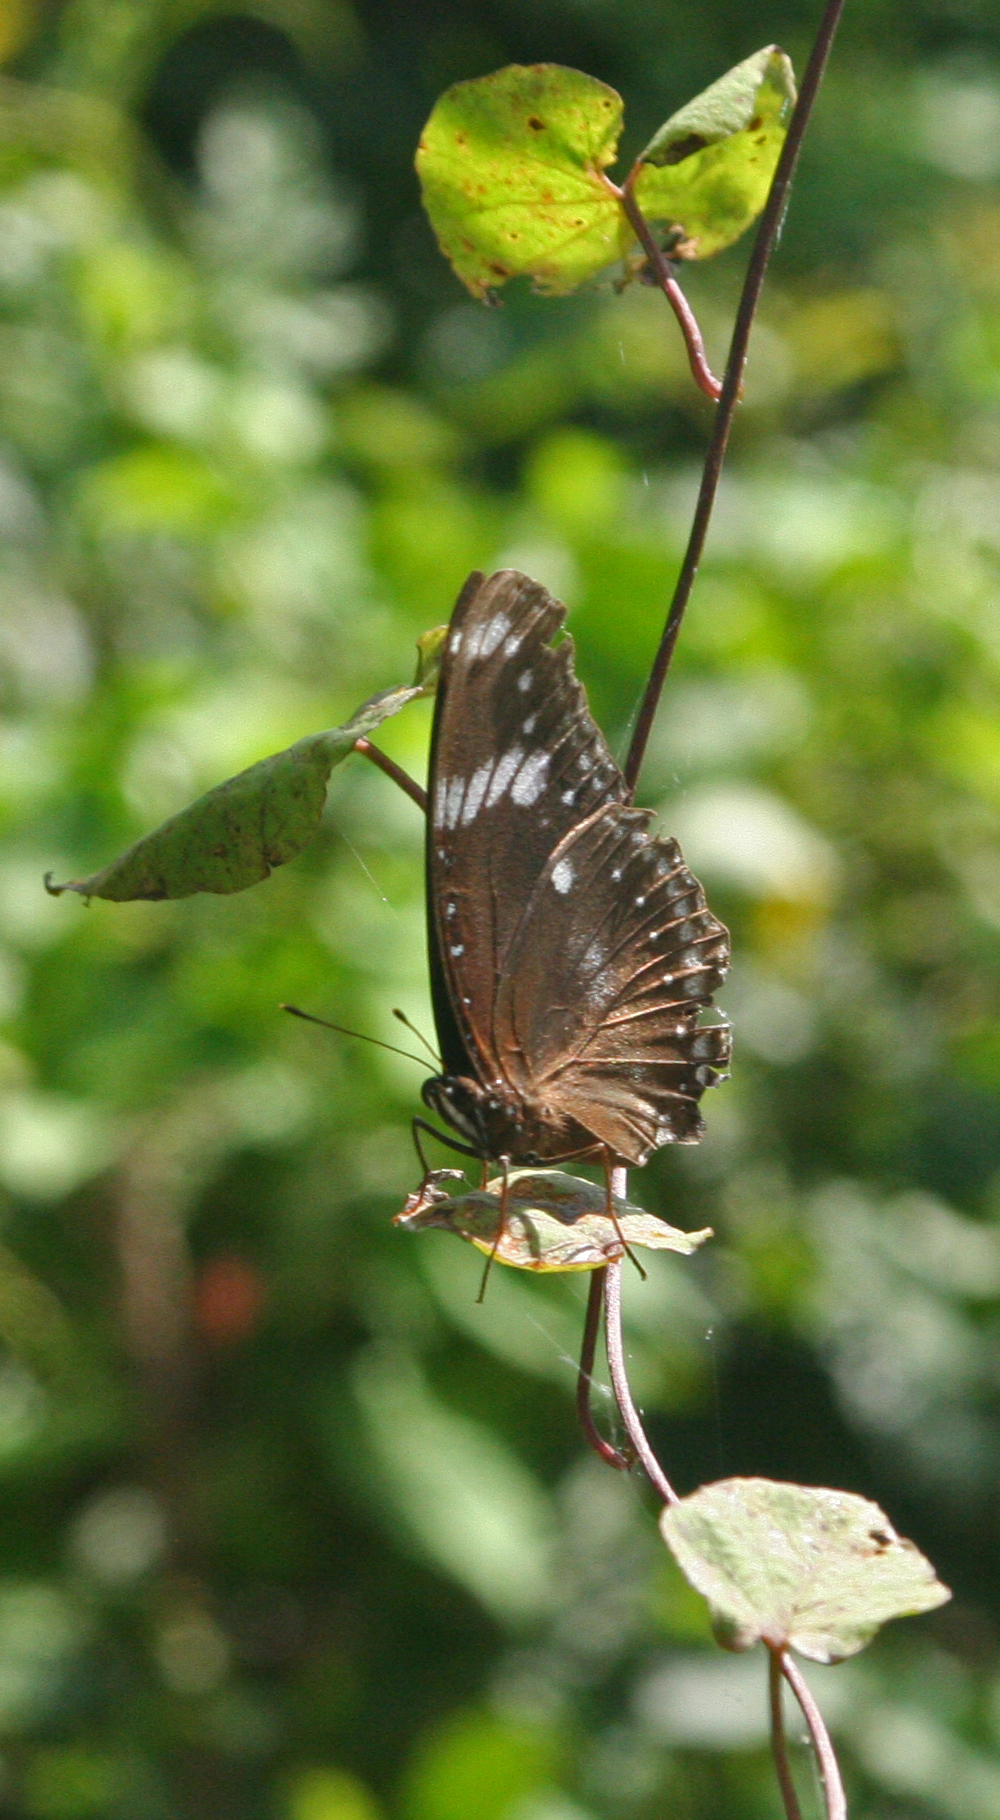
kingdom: Animalia
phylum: Arthropoda
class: Insecta
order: Lepidoptera
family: Nymphalidae
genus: Hypolimnas
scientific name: Hypolimnas bolina
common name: Great eggfly
